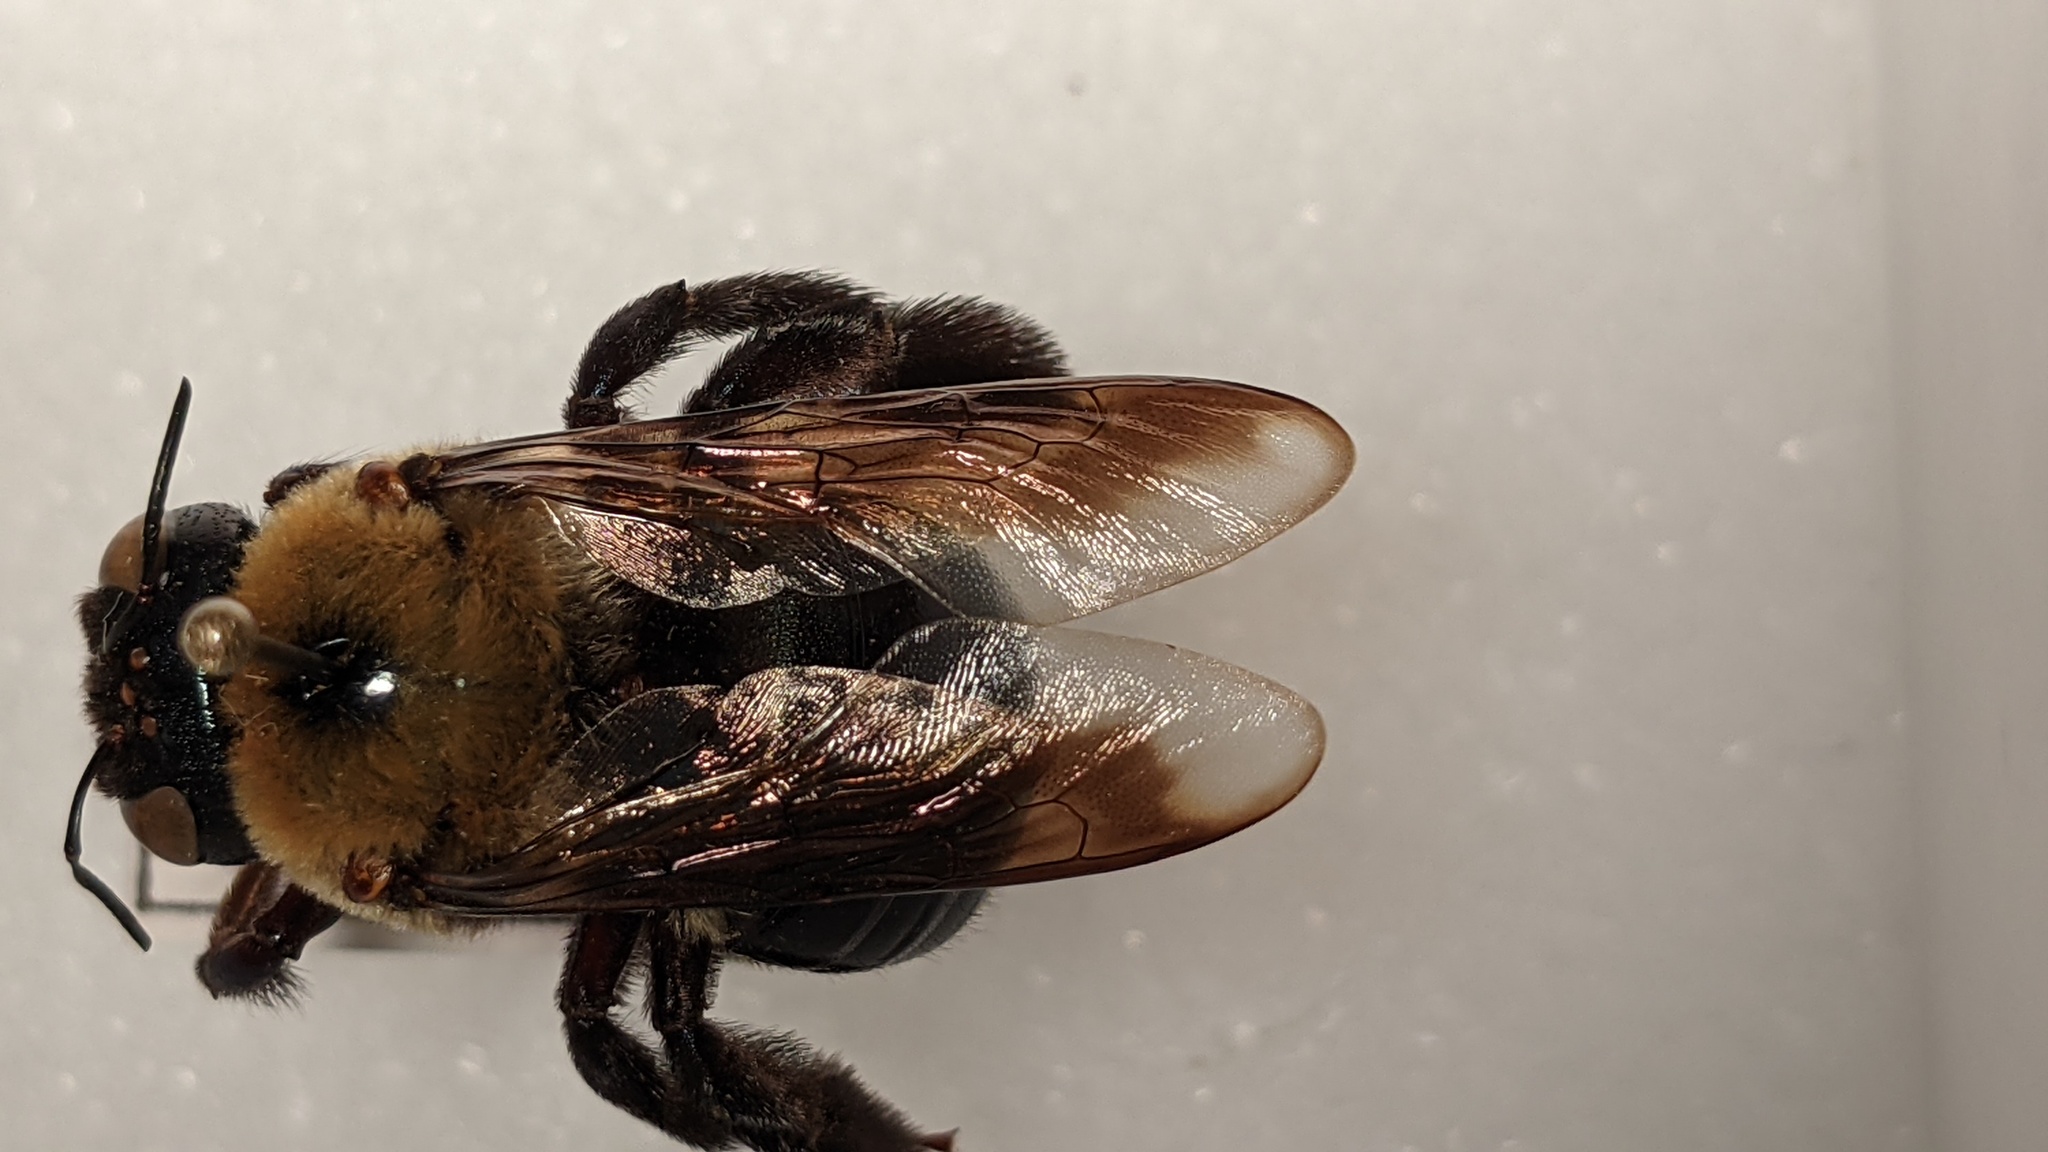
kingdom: Animalia
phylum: Arthropoda
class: Insecta
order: Hymenoptera
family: Apidae
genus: Xylocopa
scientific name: Xylocopa virginica
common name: Carpenter bee
